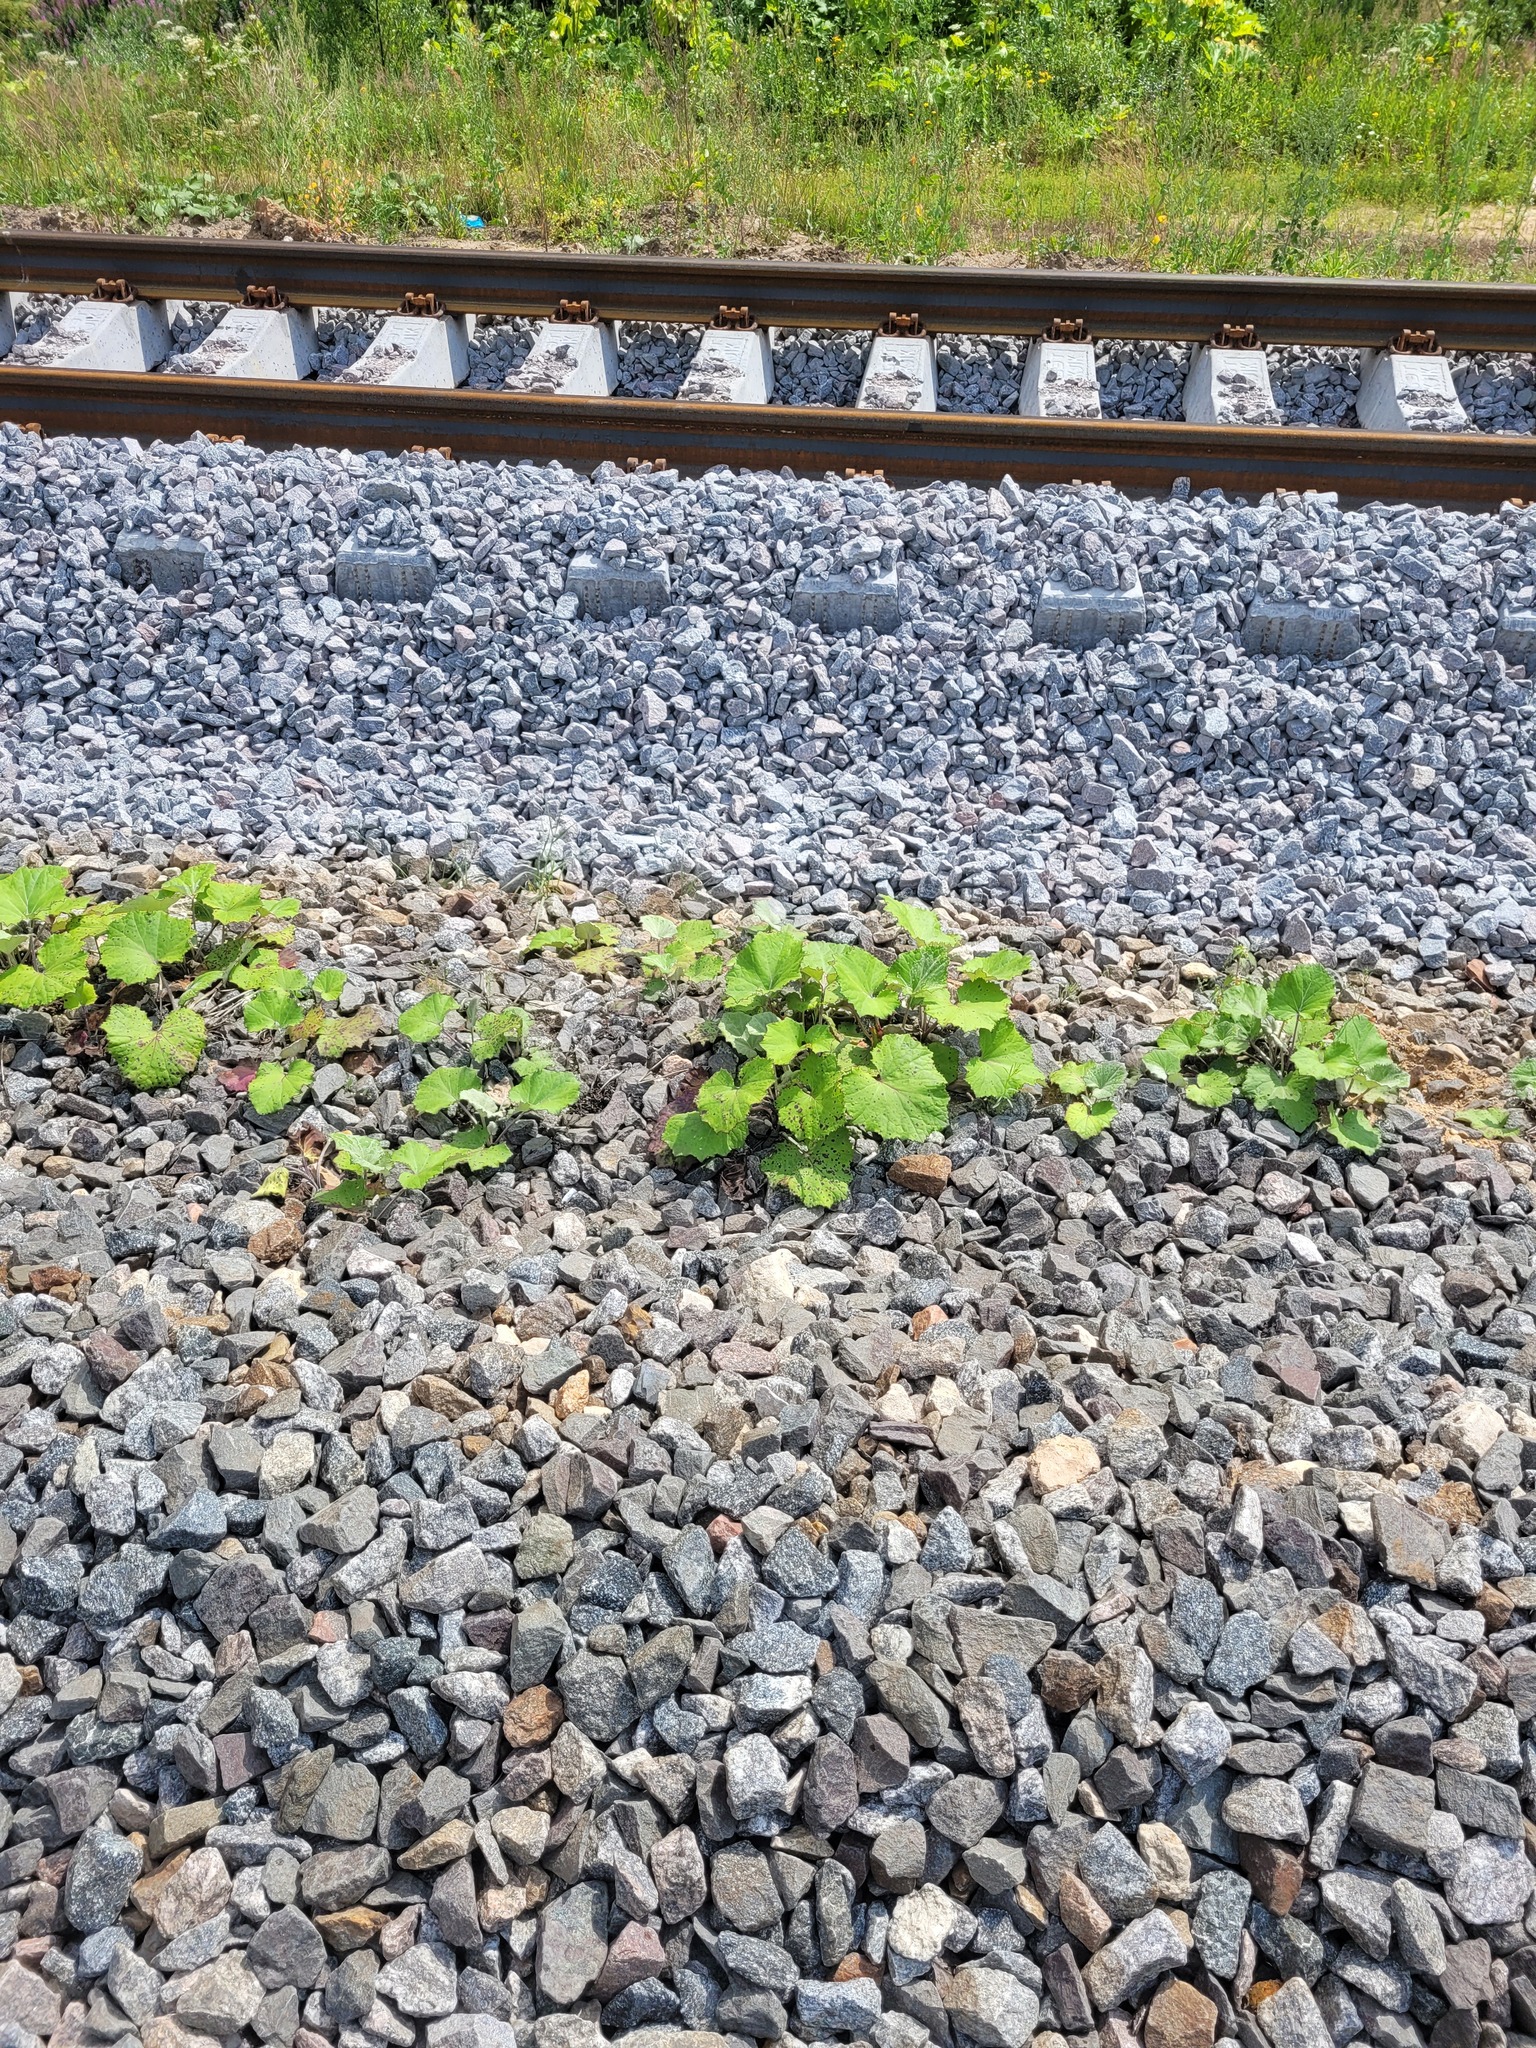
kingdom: Plantae
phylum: Tracheophyta
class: Magnoliopsida
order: Asterales
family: Asteraceae
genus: Tussilago
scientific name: Tussilago farfara
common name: Coltsfoot
